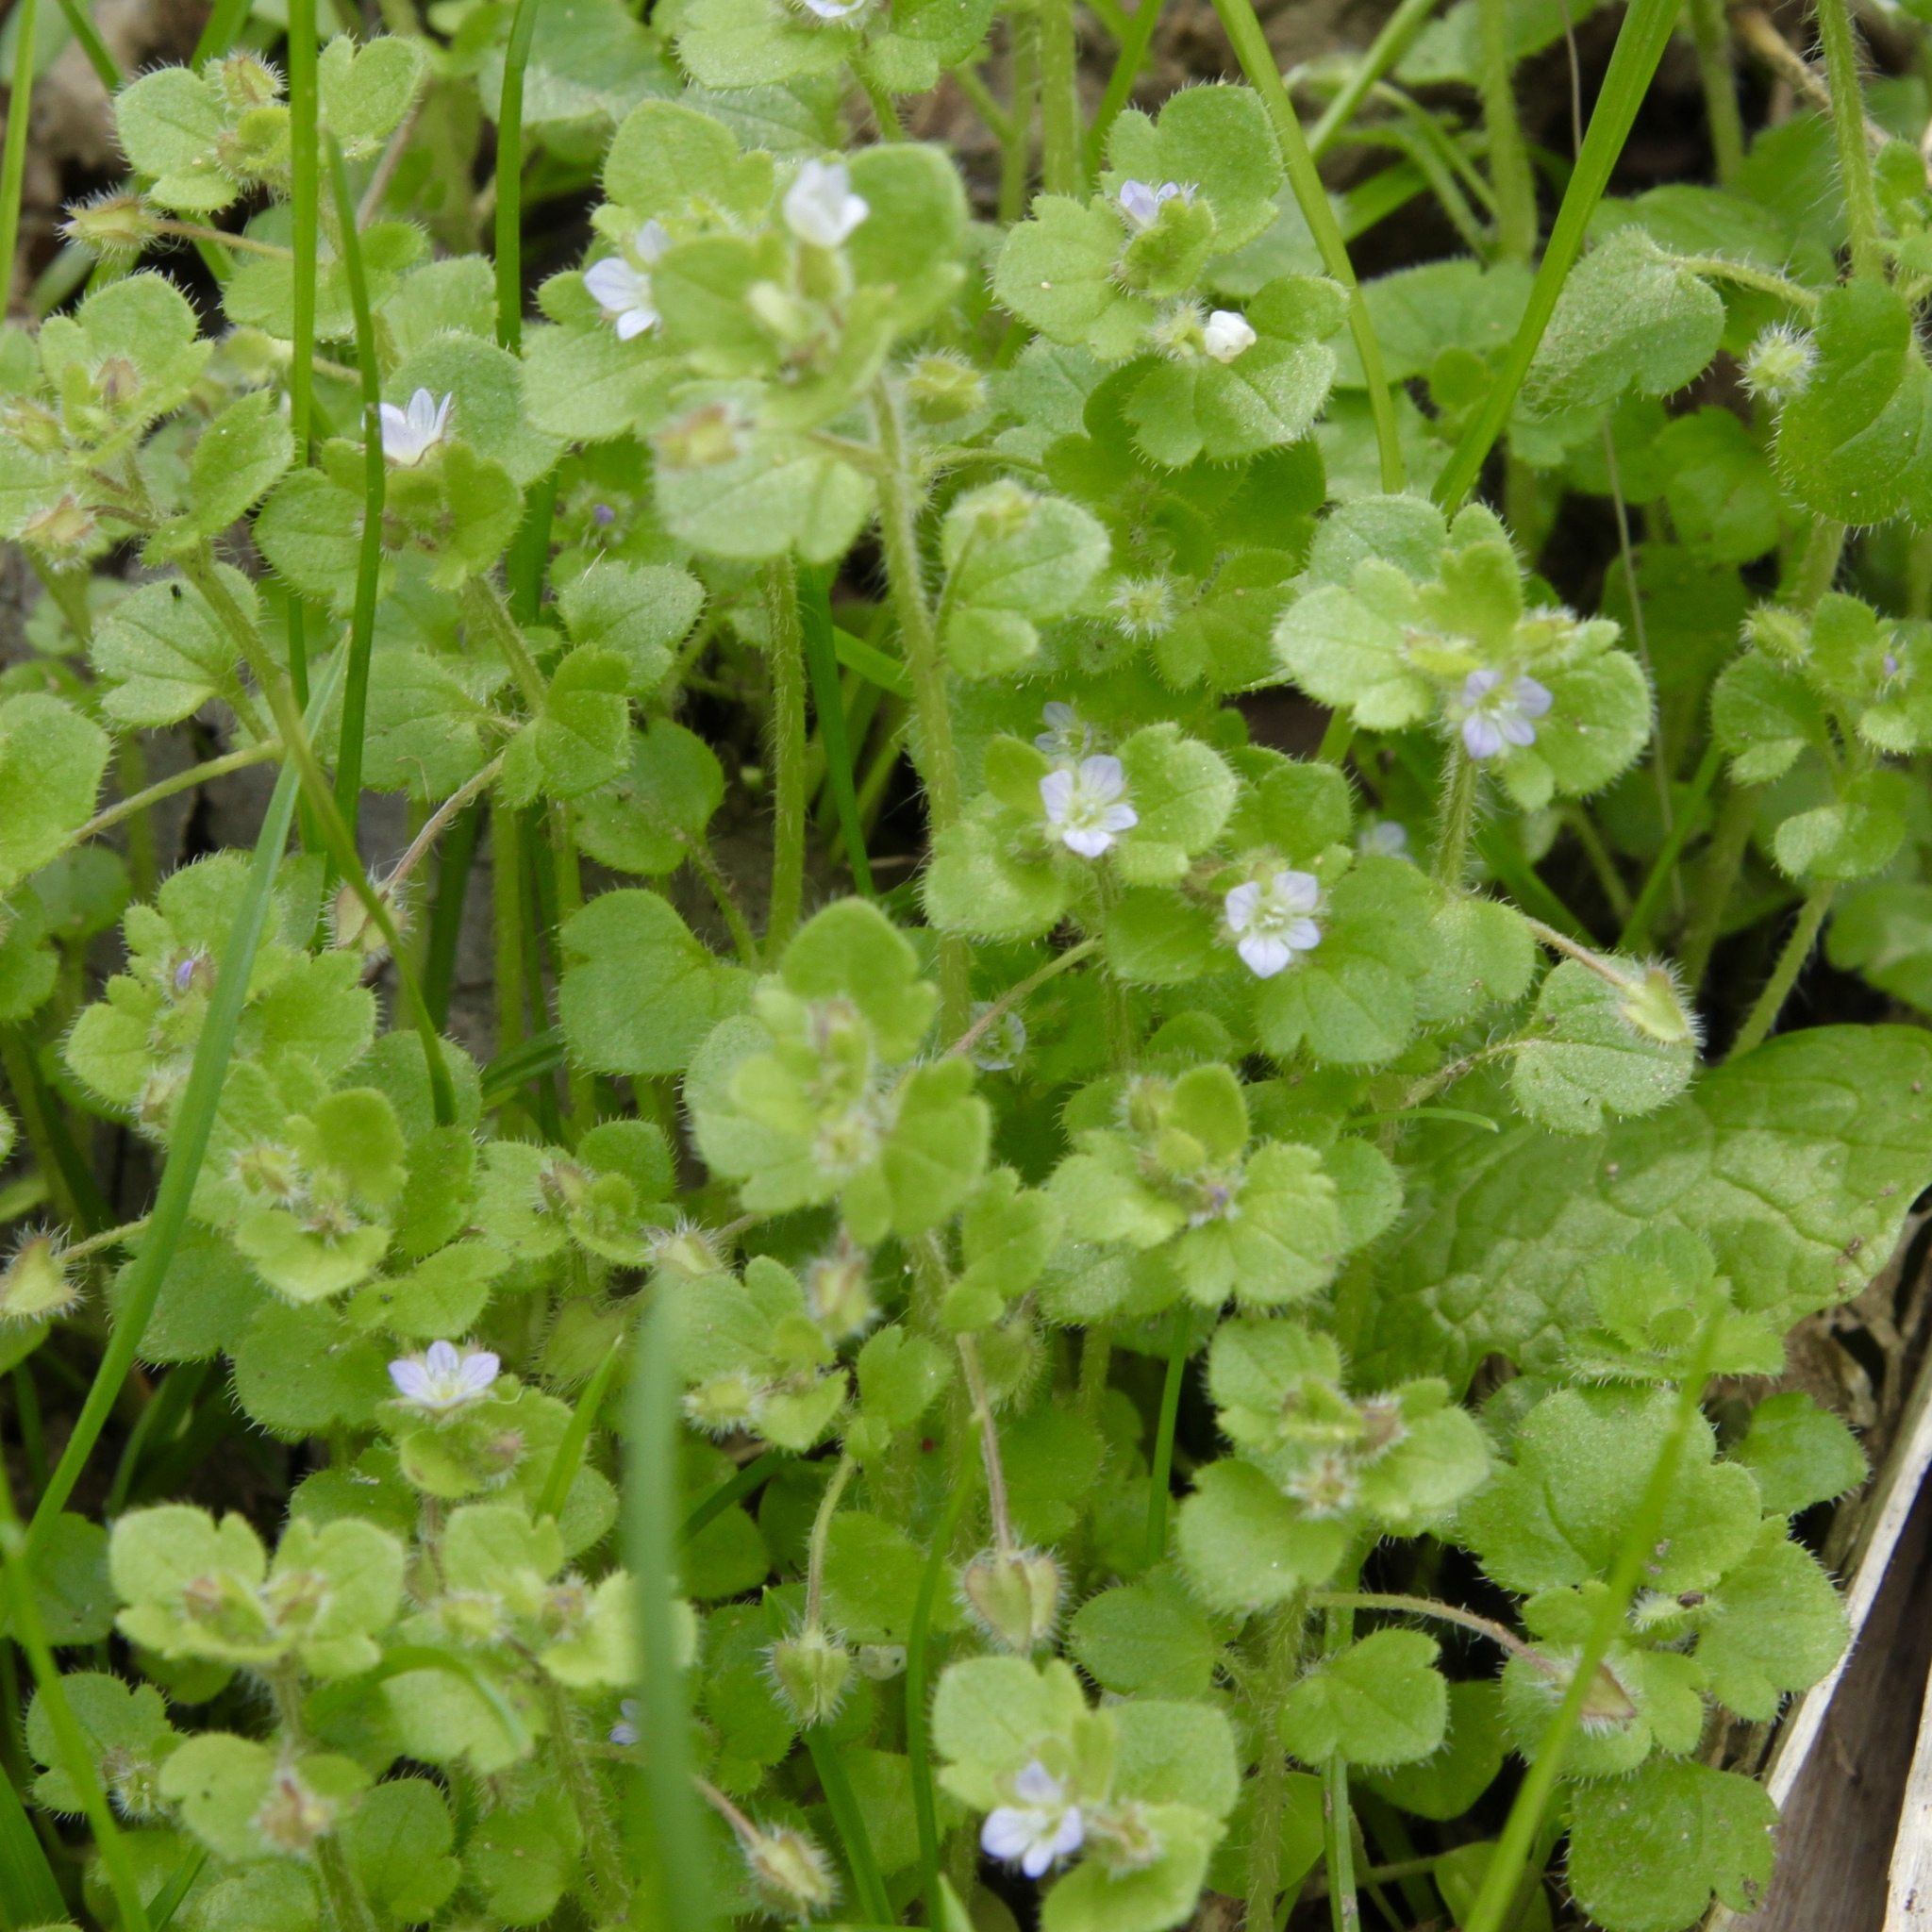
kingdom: Plantae
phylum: Tracheophyta
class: Magnoliopsida
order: Lamiales
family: Plantaginaceae
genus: Veronica
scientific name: Veronica hederifolia
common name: Ivy-leaved speedwell
